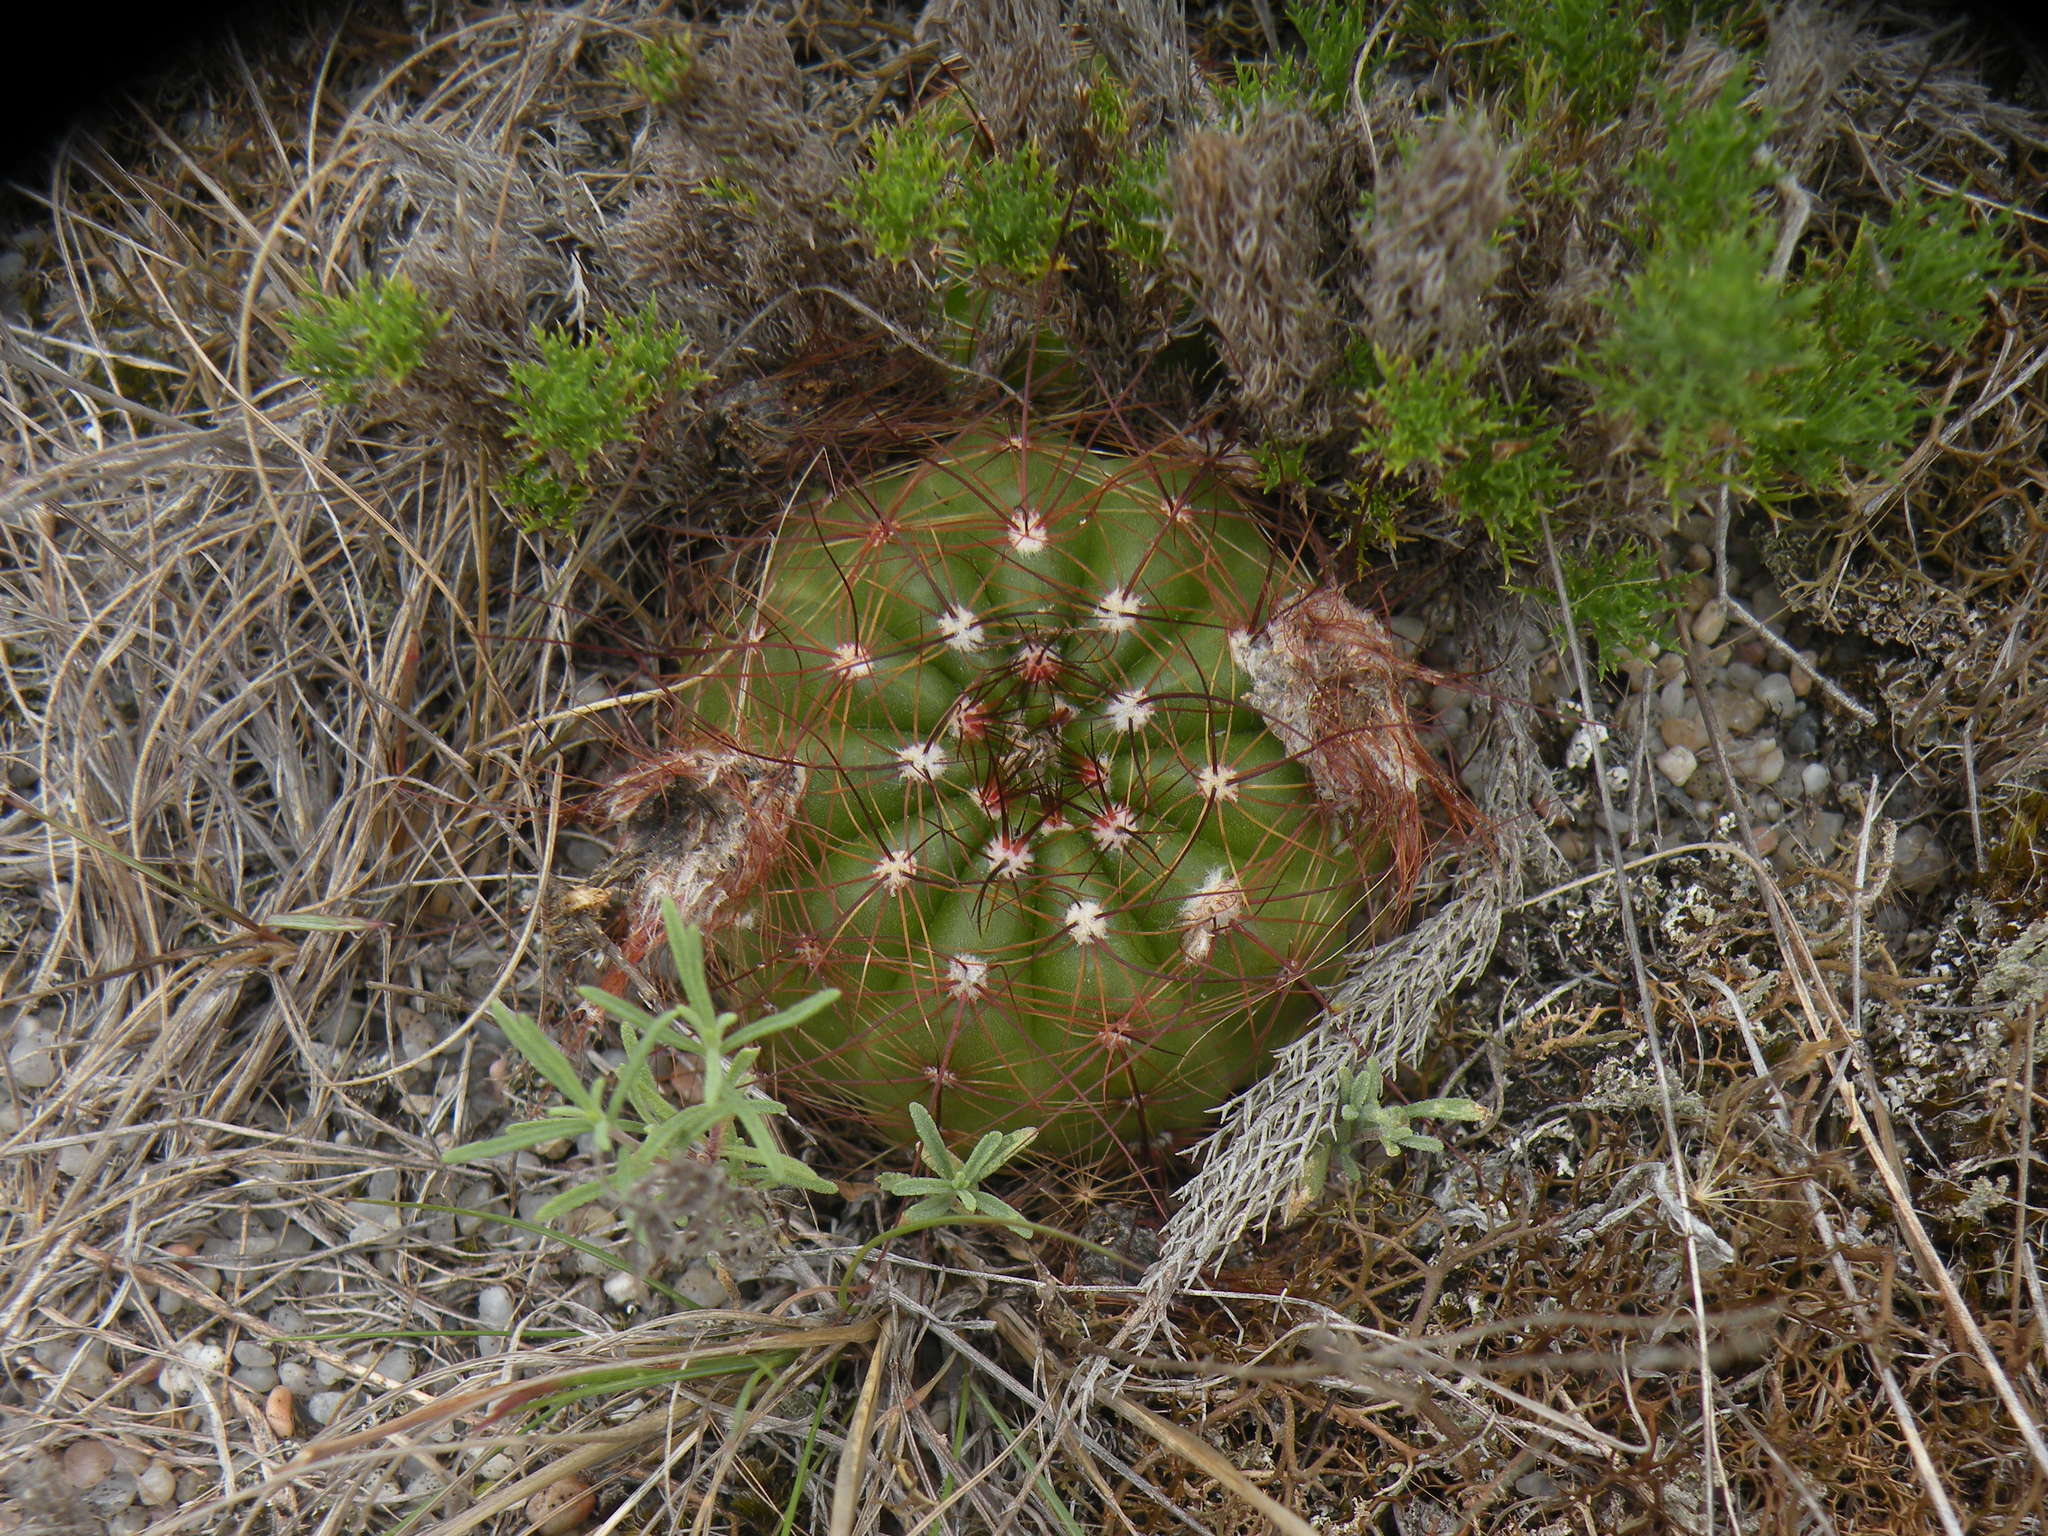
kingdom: Plantae
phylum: Tracheophyta
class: Magnoliopsida
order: Caryophyllales
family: Cactaceae
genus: Parodia
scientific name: Parodia ottonis
